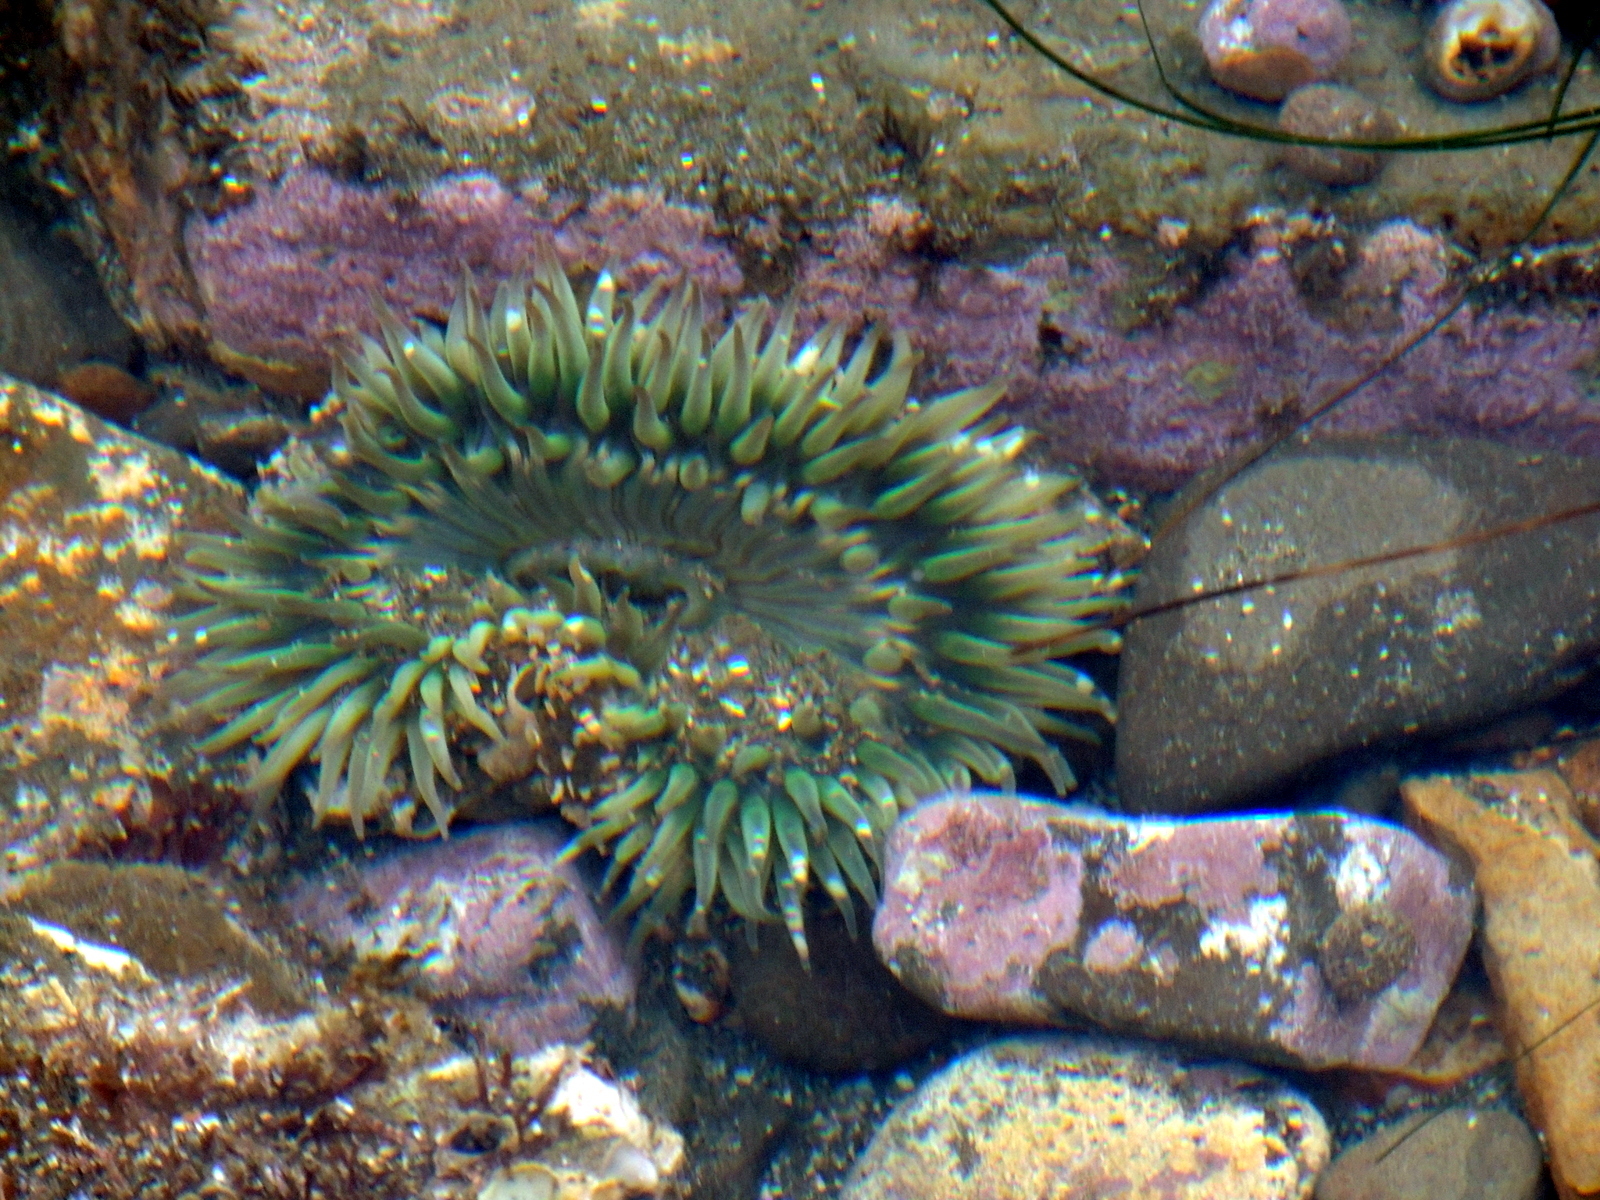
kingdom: Animalia
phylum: Cnidaria
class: Anthozoa
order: Actiniaria
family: Actiniidae
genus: Anthopleura
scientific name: Anthopleura sola
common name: Sun anemone
